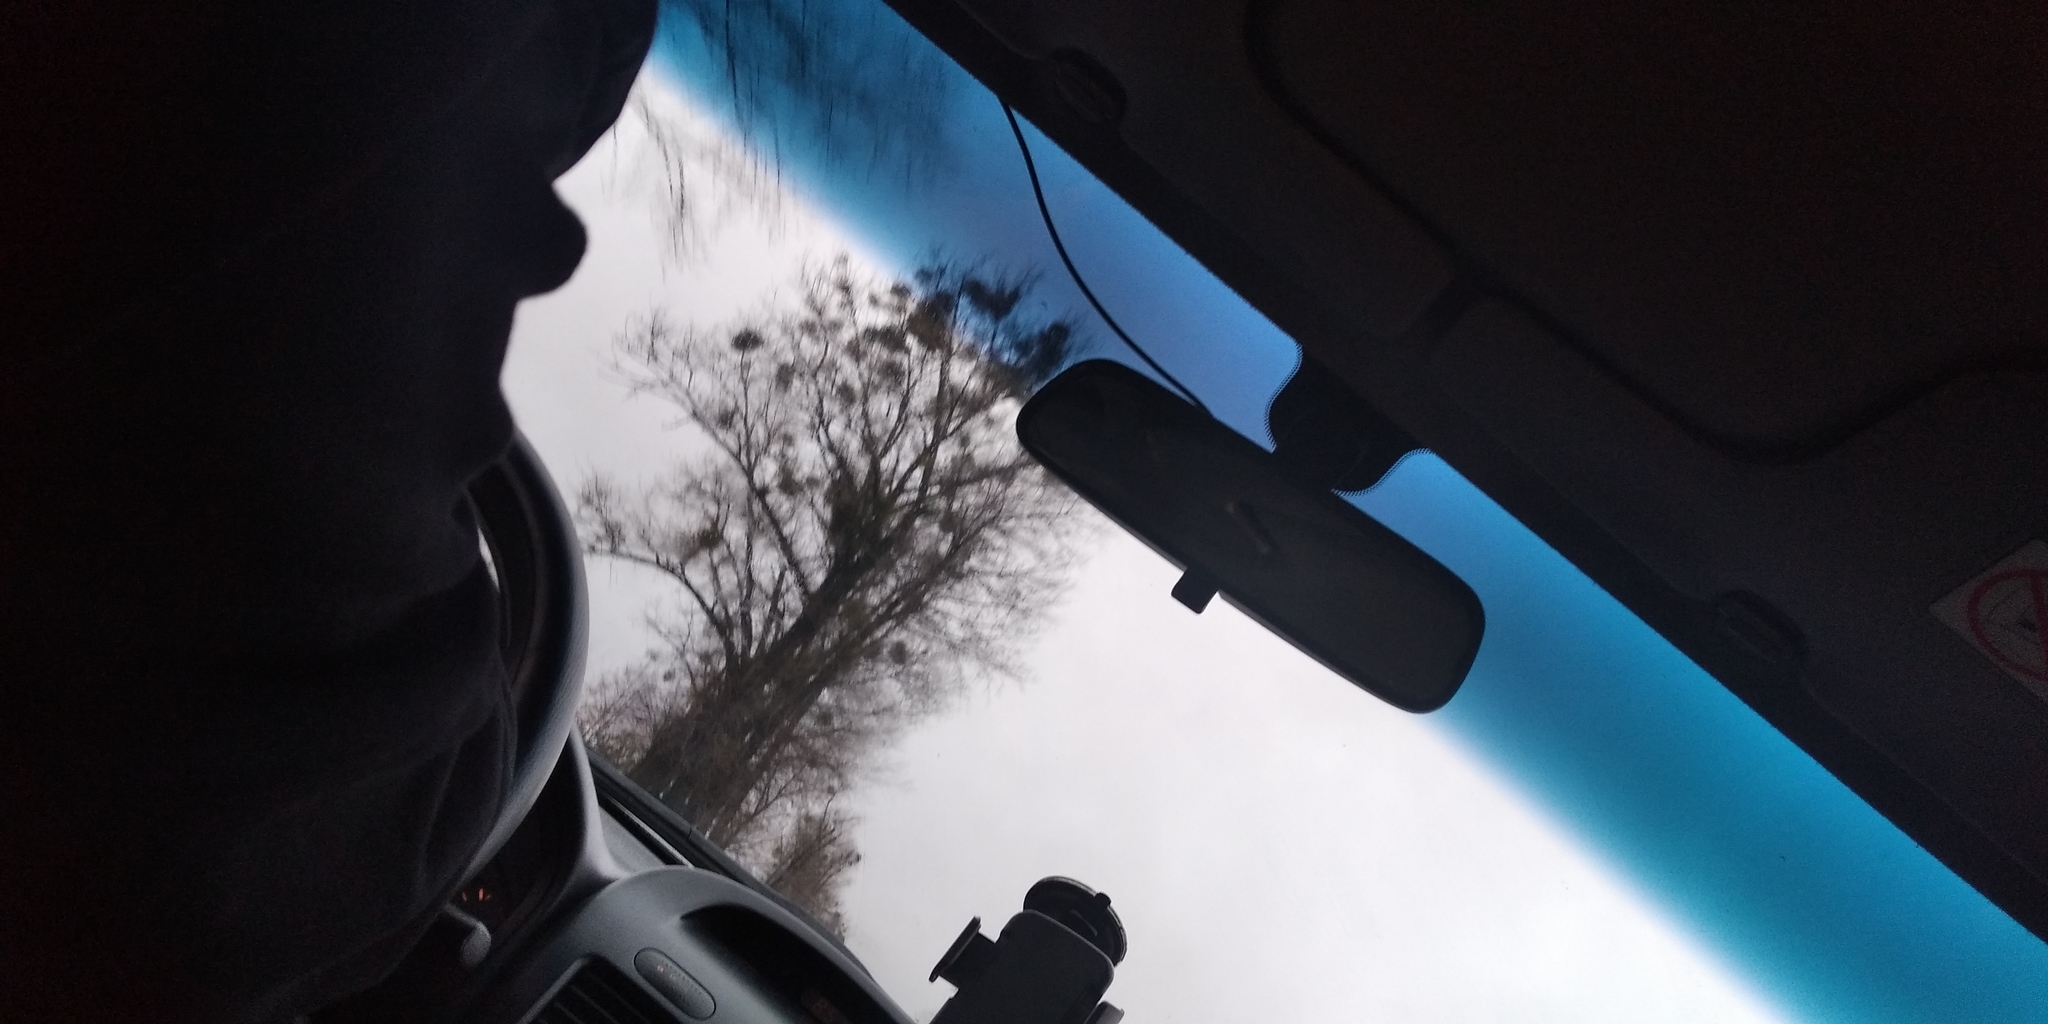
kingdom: Plantae
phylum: Tracheophyta
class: Magnoliopsida
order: Santalales
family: Viscaceae
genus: Viscum
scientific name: Viscum album
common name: Mistletoe
